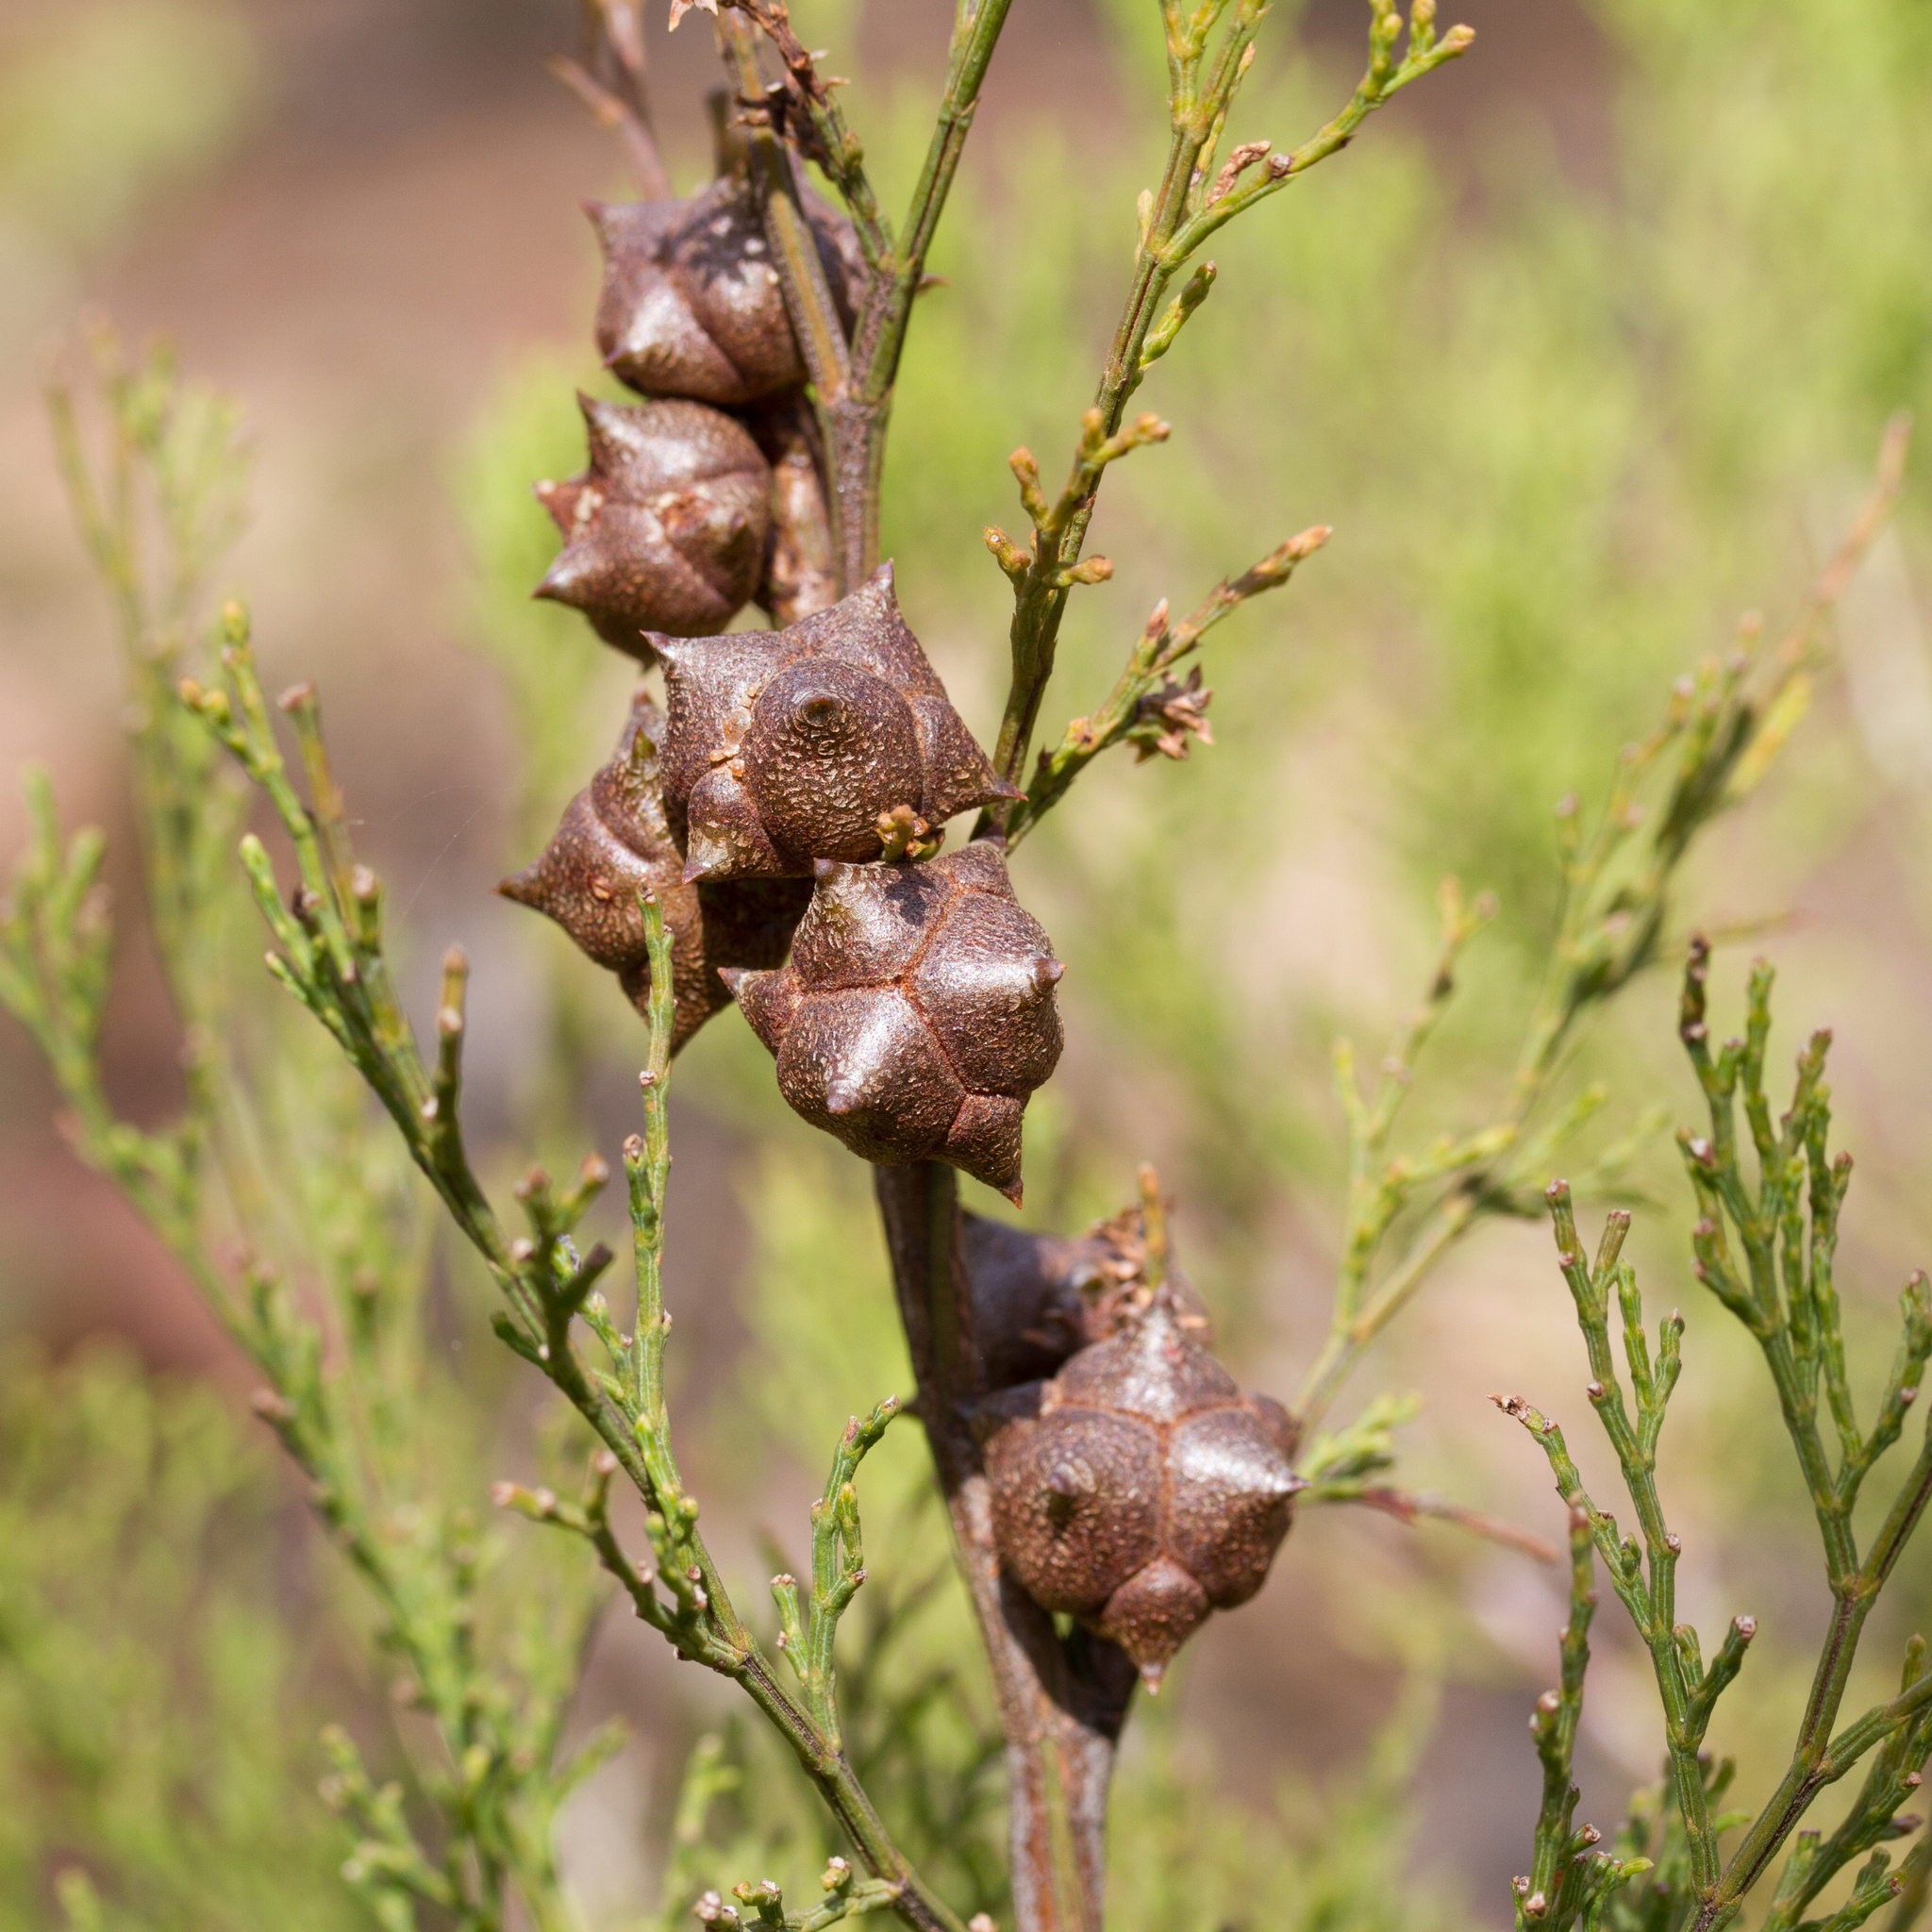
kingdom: Plantae
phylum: Tracheophyta
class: Pinopsida
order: Pinales
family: Cupressaceae
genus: Callitris
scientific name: Callitris rhomboidea
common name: Illawara mountain pine
